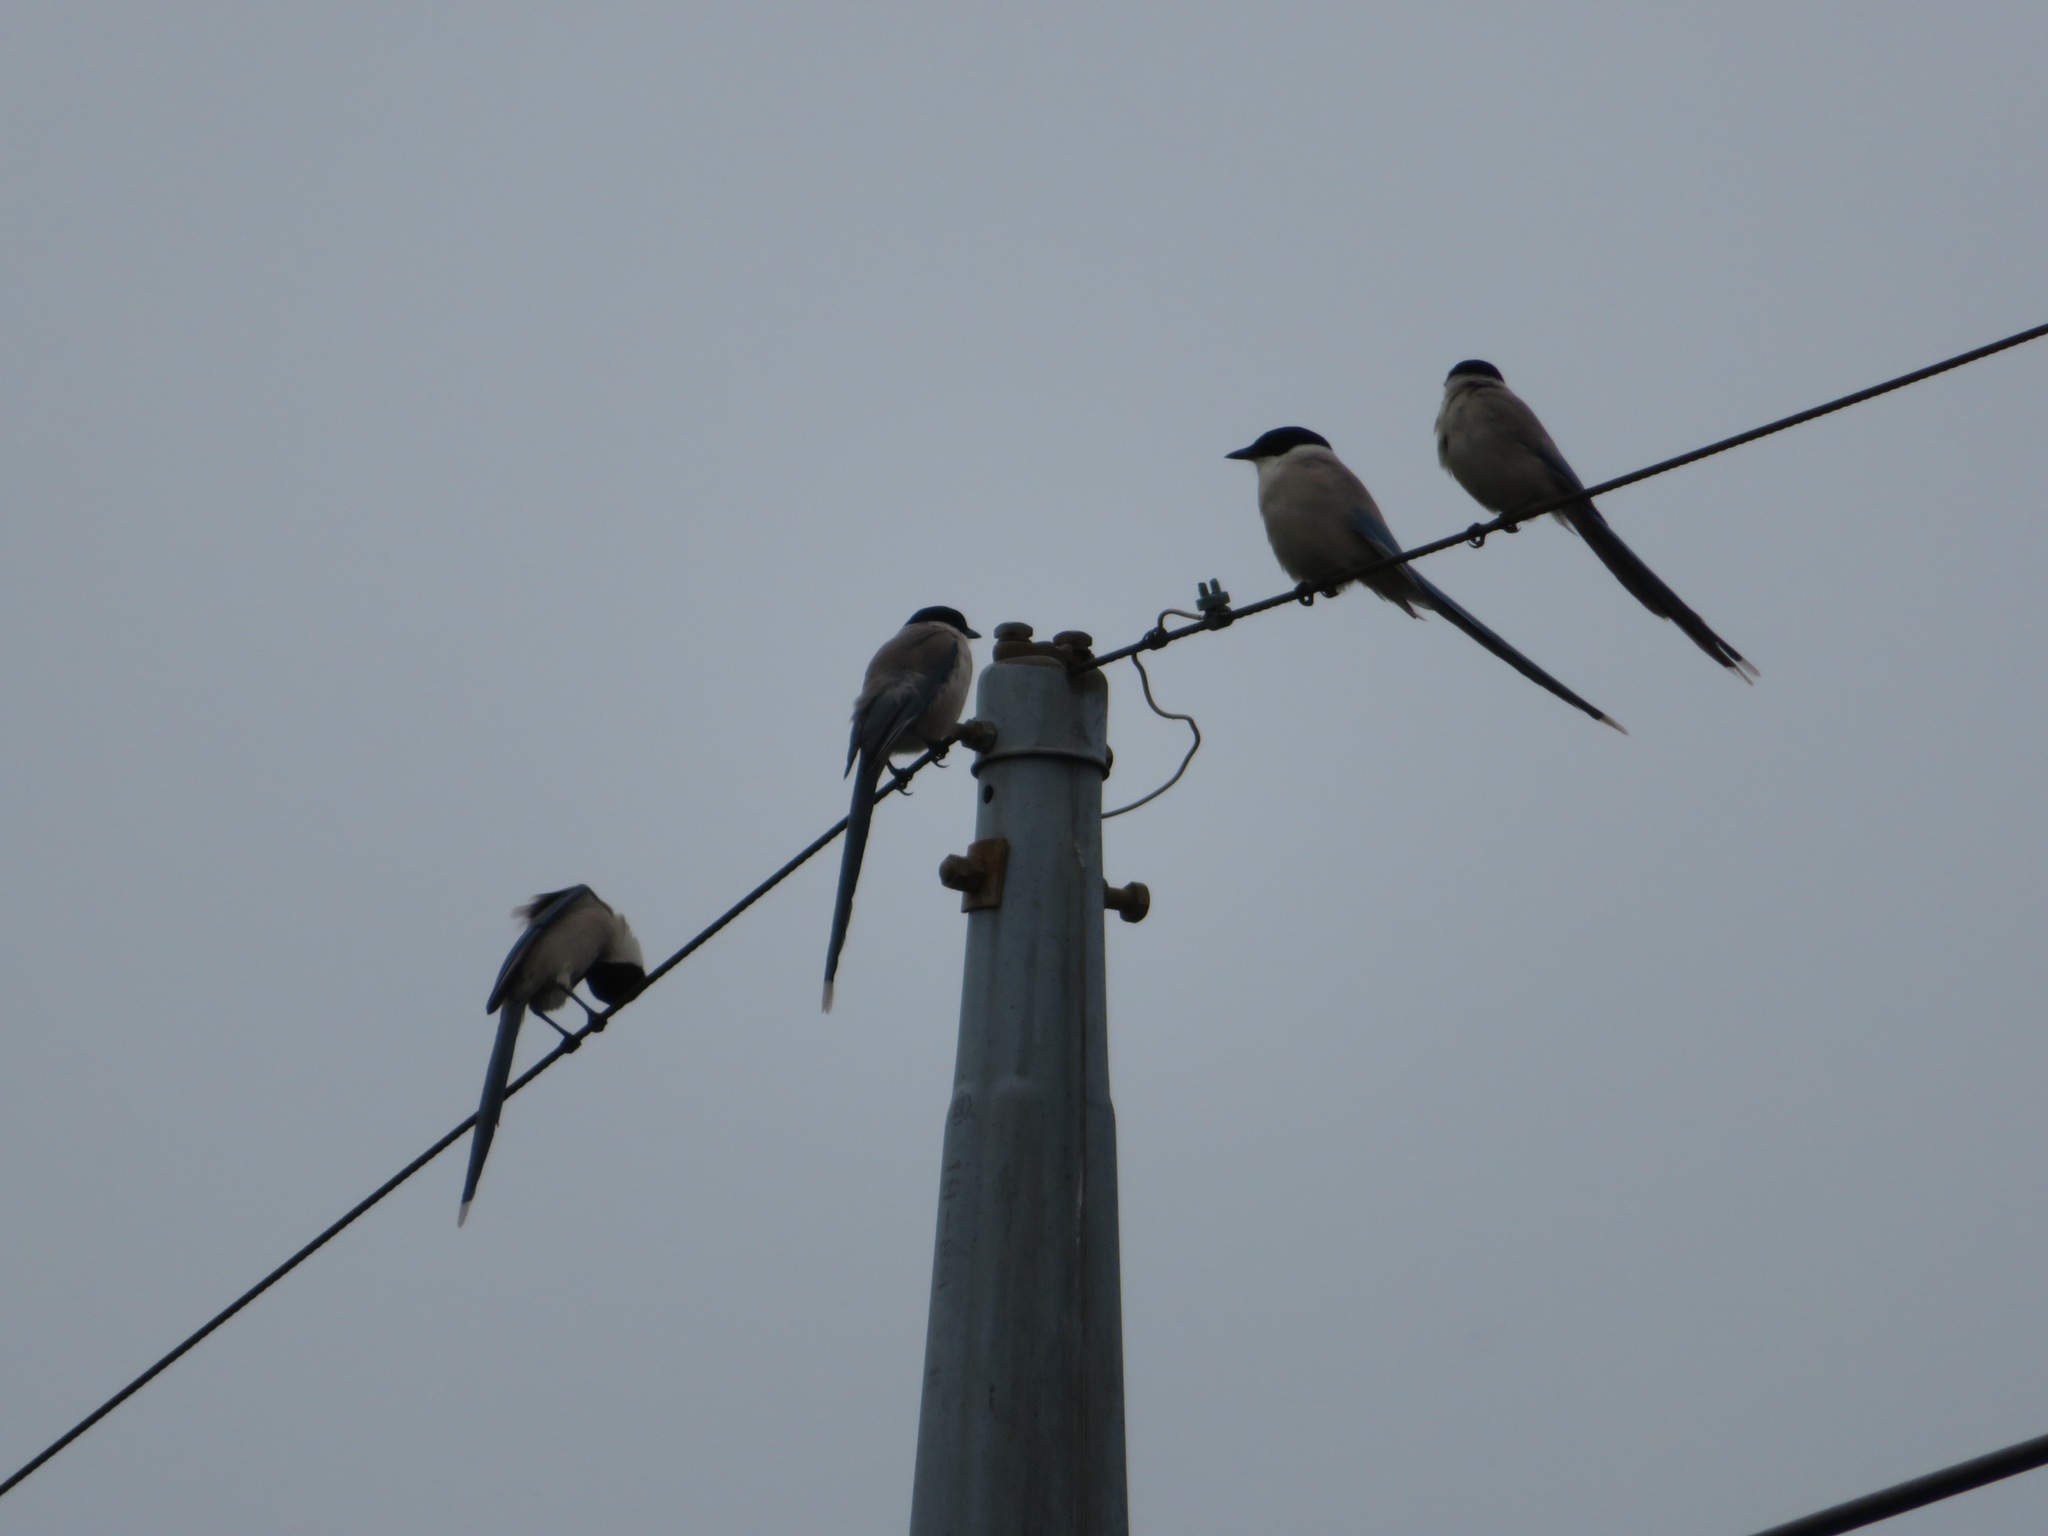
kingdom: Animalia
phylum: Chordata
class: Aves
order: Passeriformes
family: Corvidae
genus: Cyanopica
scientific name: Cyanopica cyanus
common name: Azure-winged magpie
